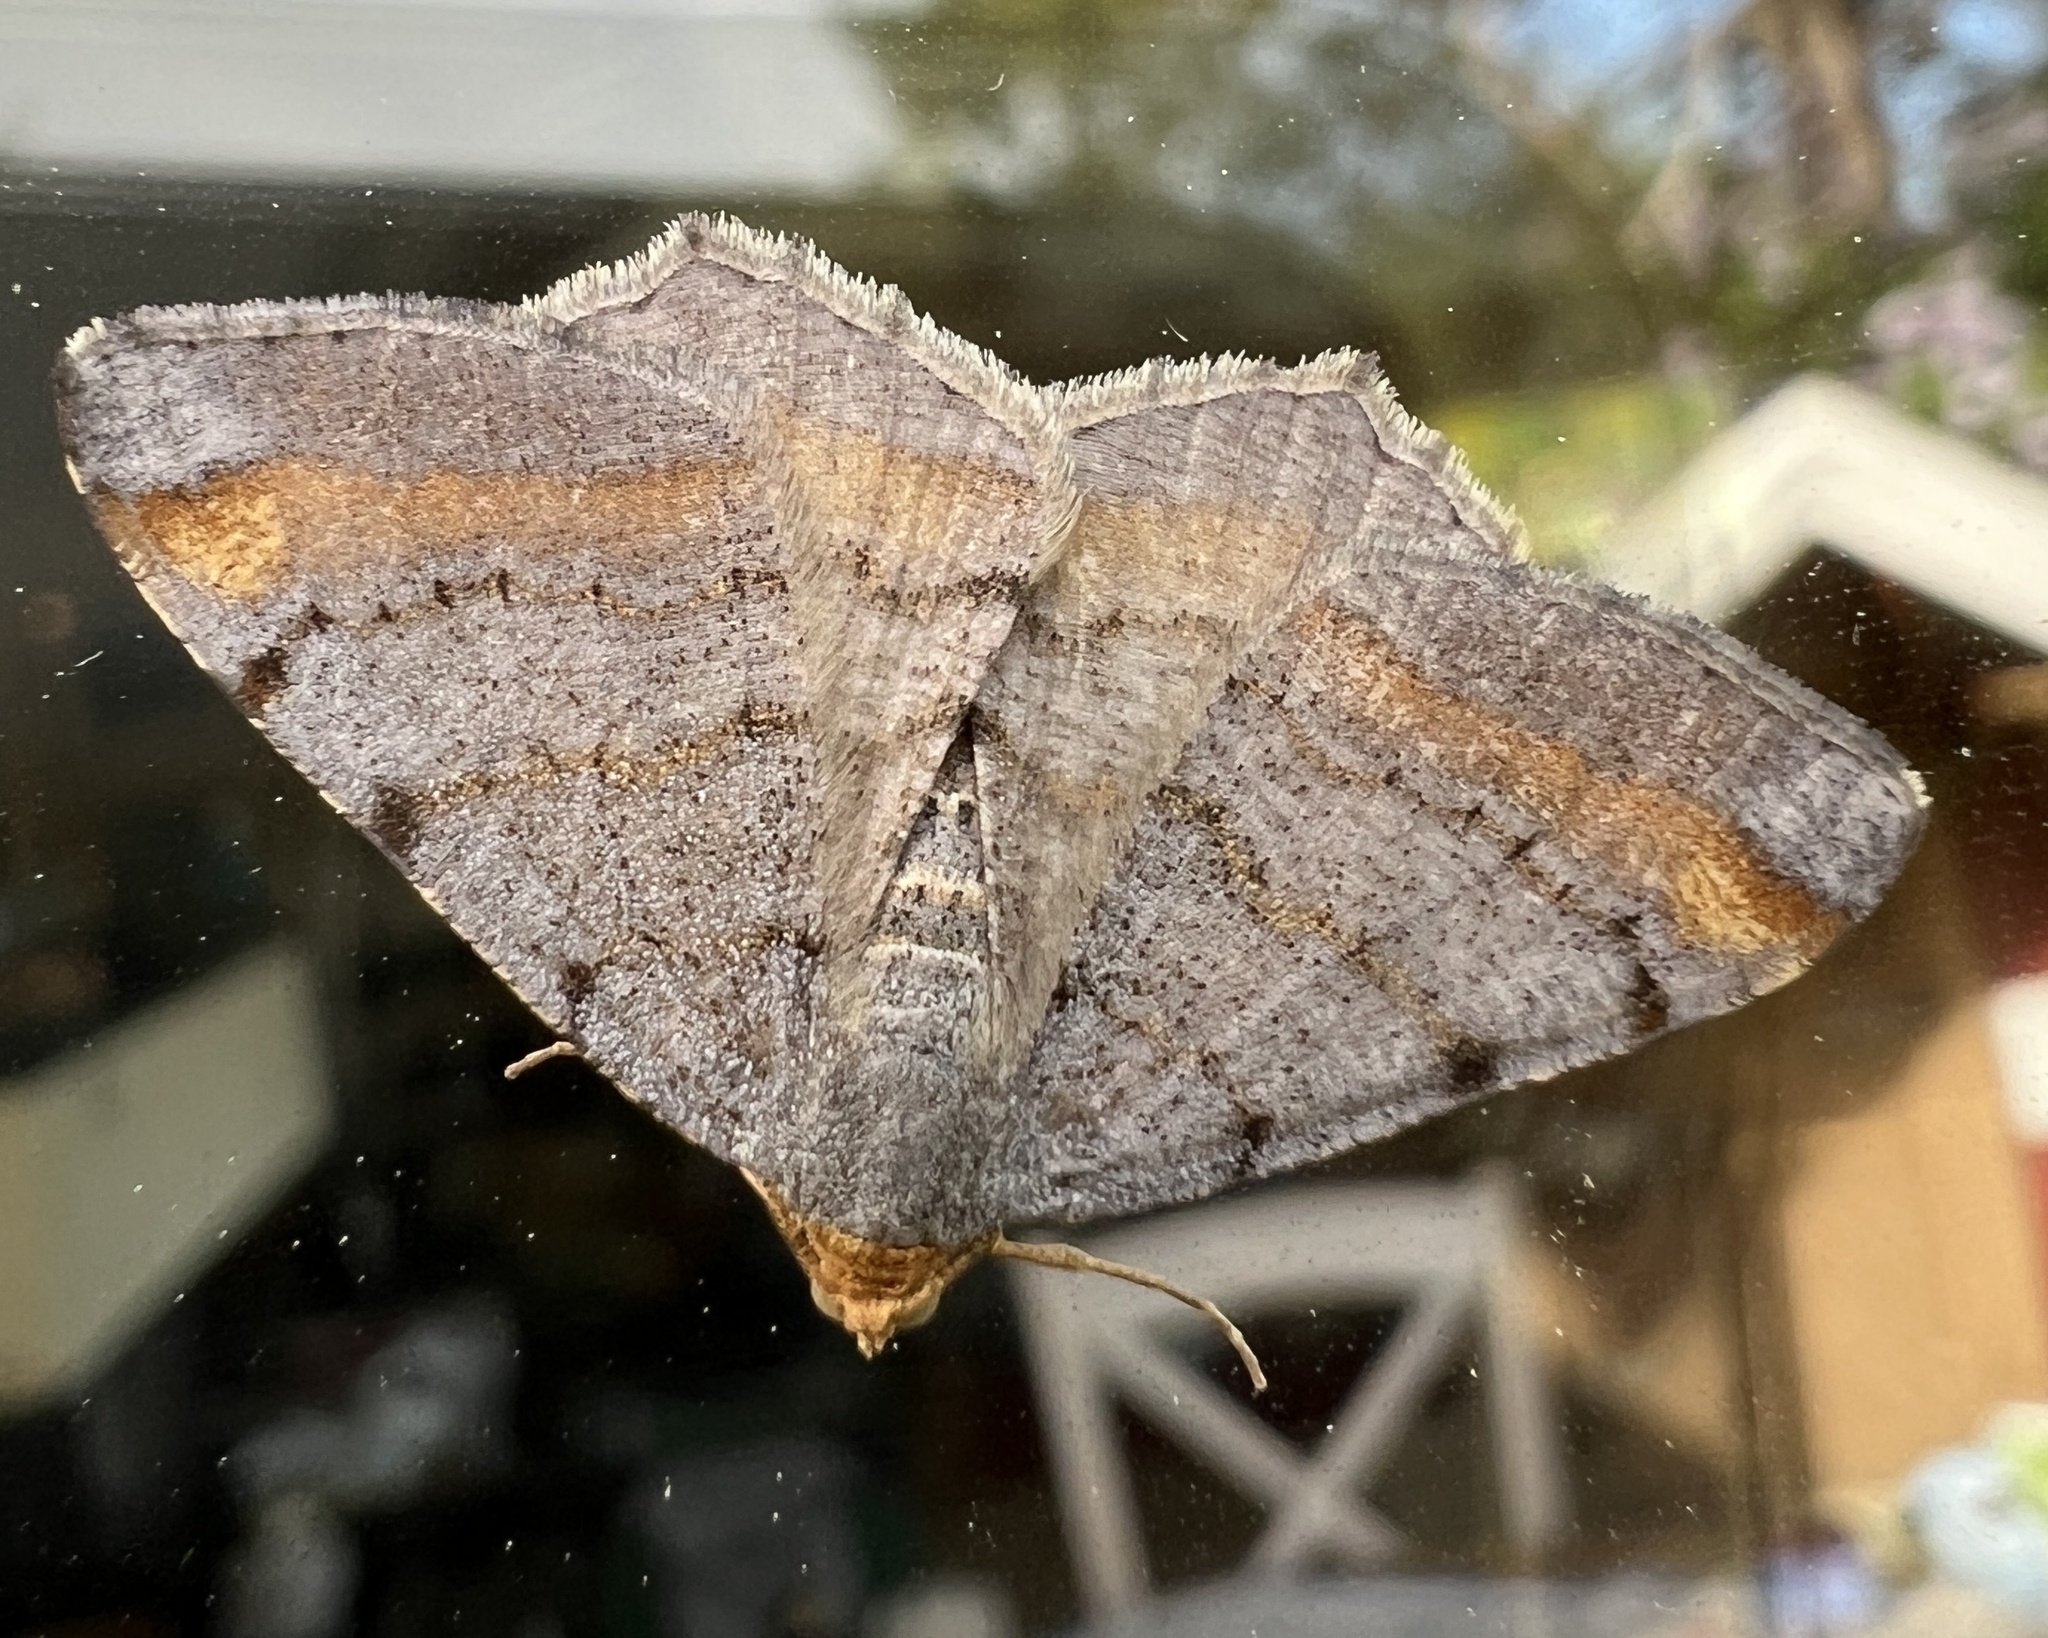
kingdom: Animalia
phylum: Arthropoda
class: Insecta
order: Lepidoptera
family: Geometridae
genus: Macaria
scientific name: Macaria liturata
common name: Tawny-barred angle
